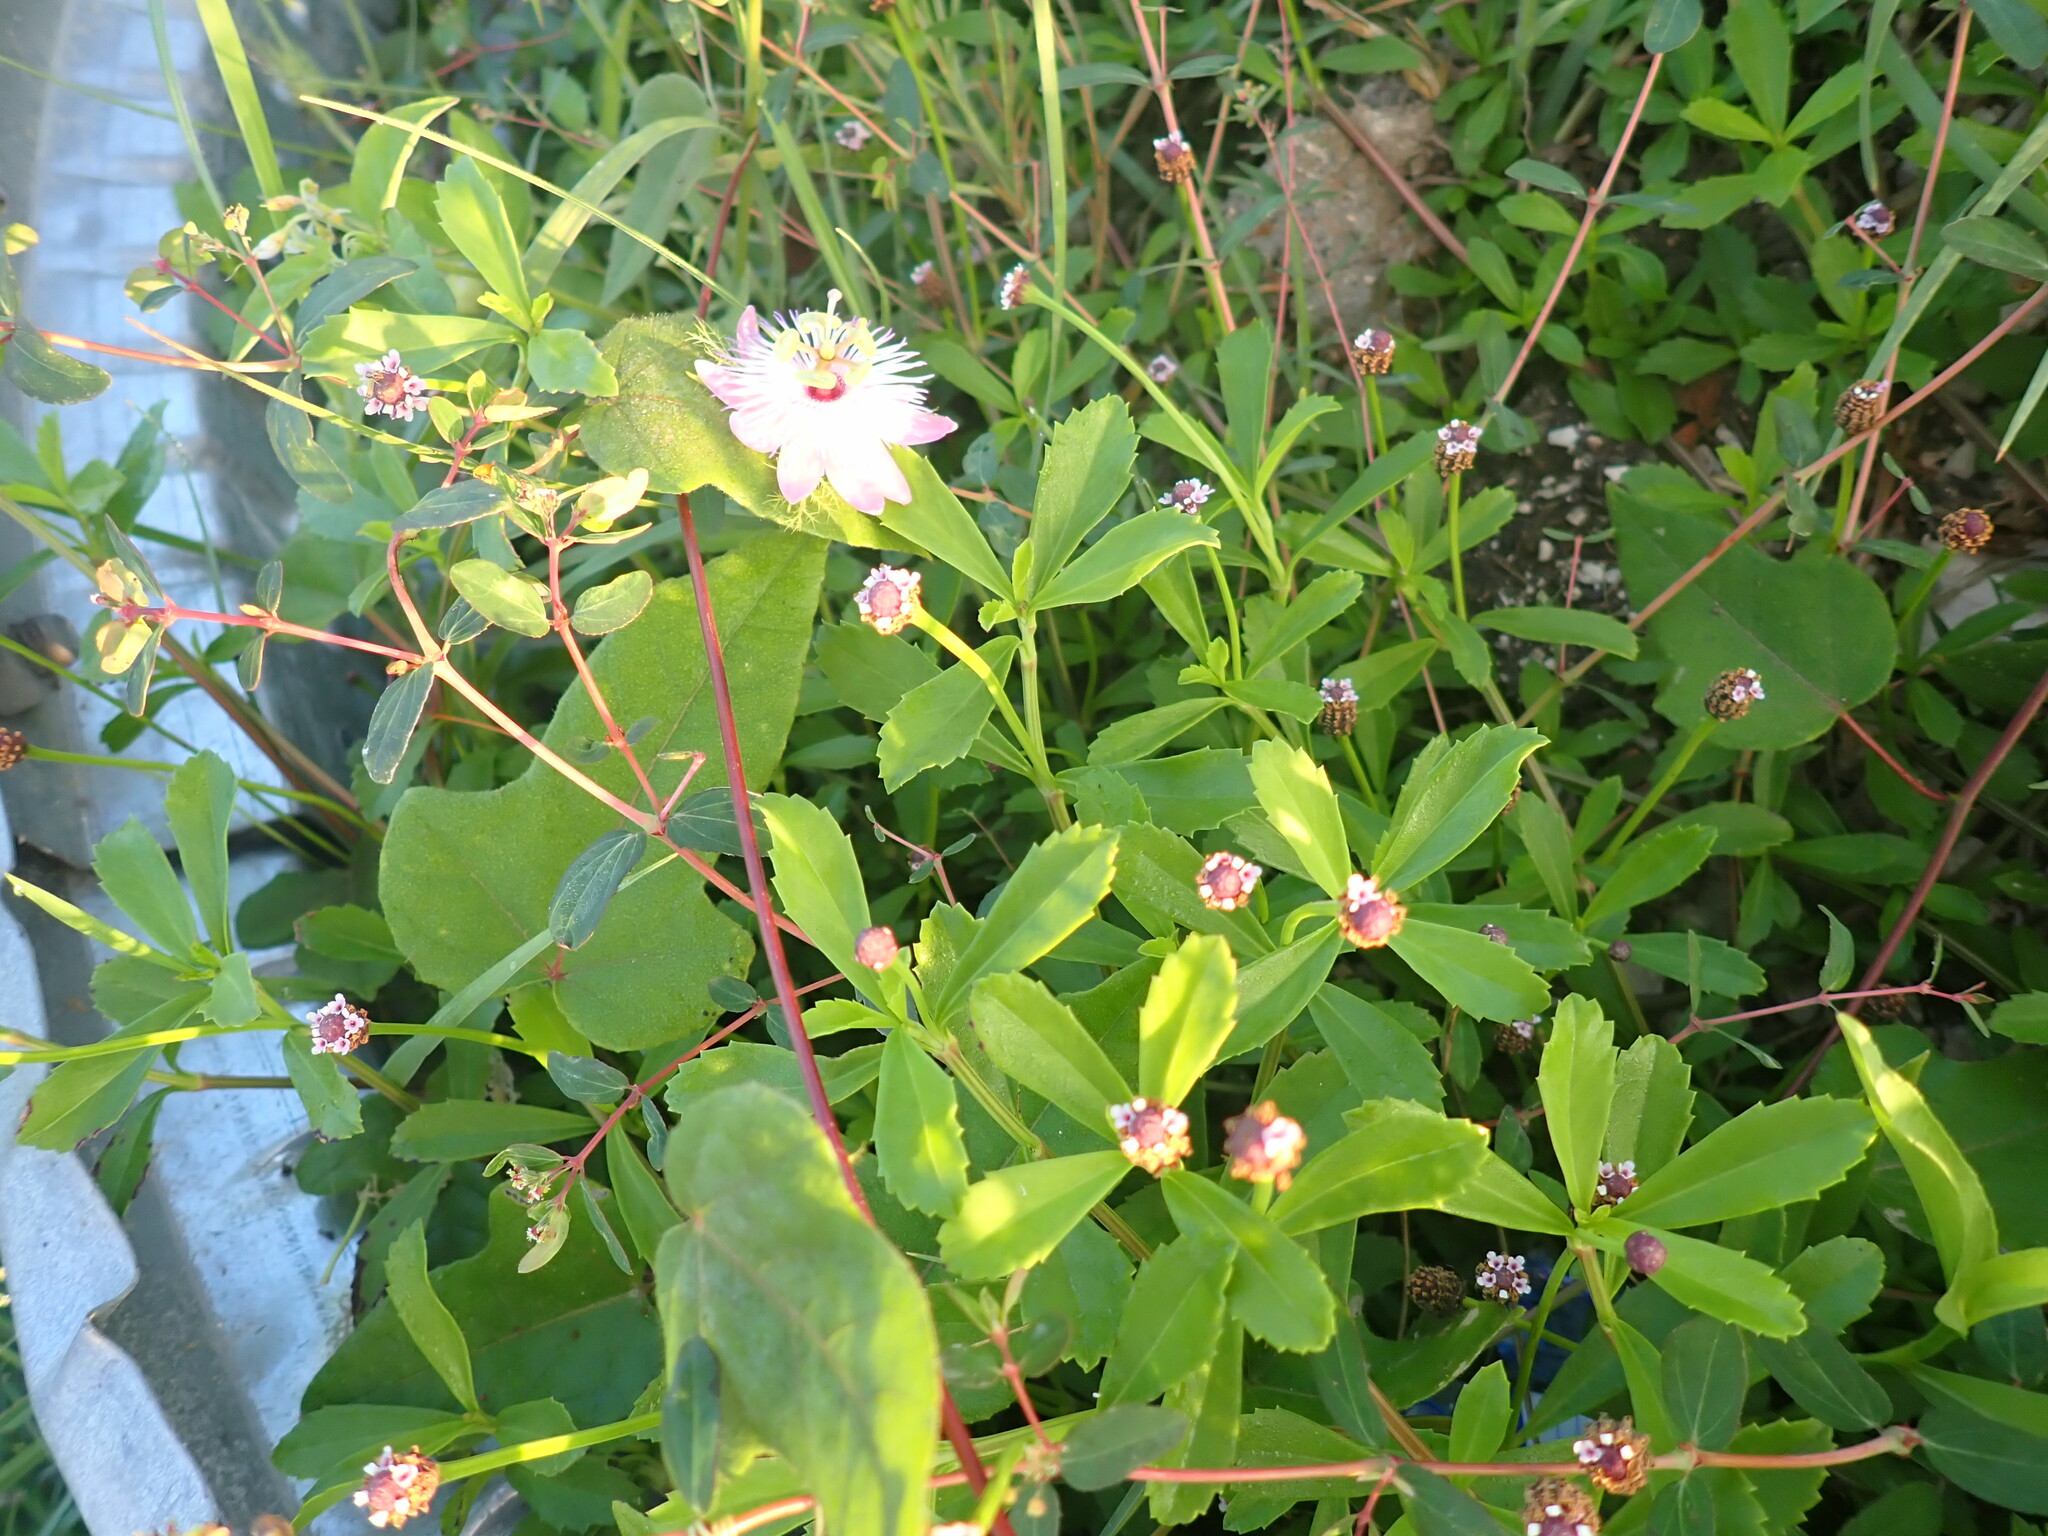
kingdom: Plantae
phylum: Tracheophyta
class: Magnoliopsida
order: Malpighiales
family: Passifloraceae
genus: Passiflora
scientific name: Passiflora ciliata
